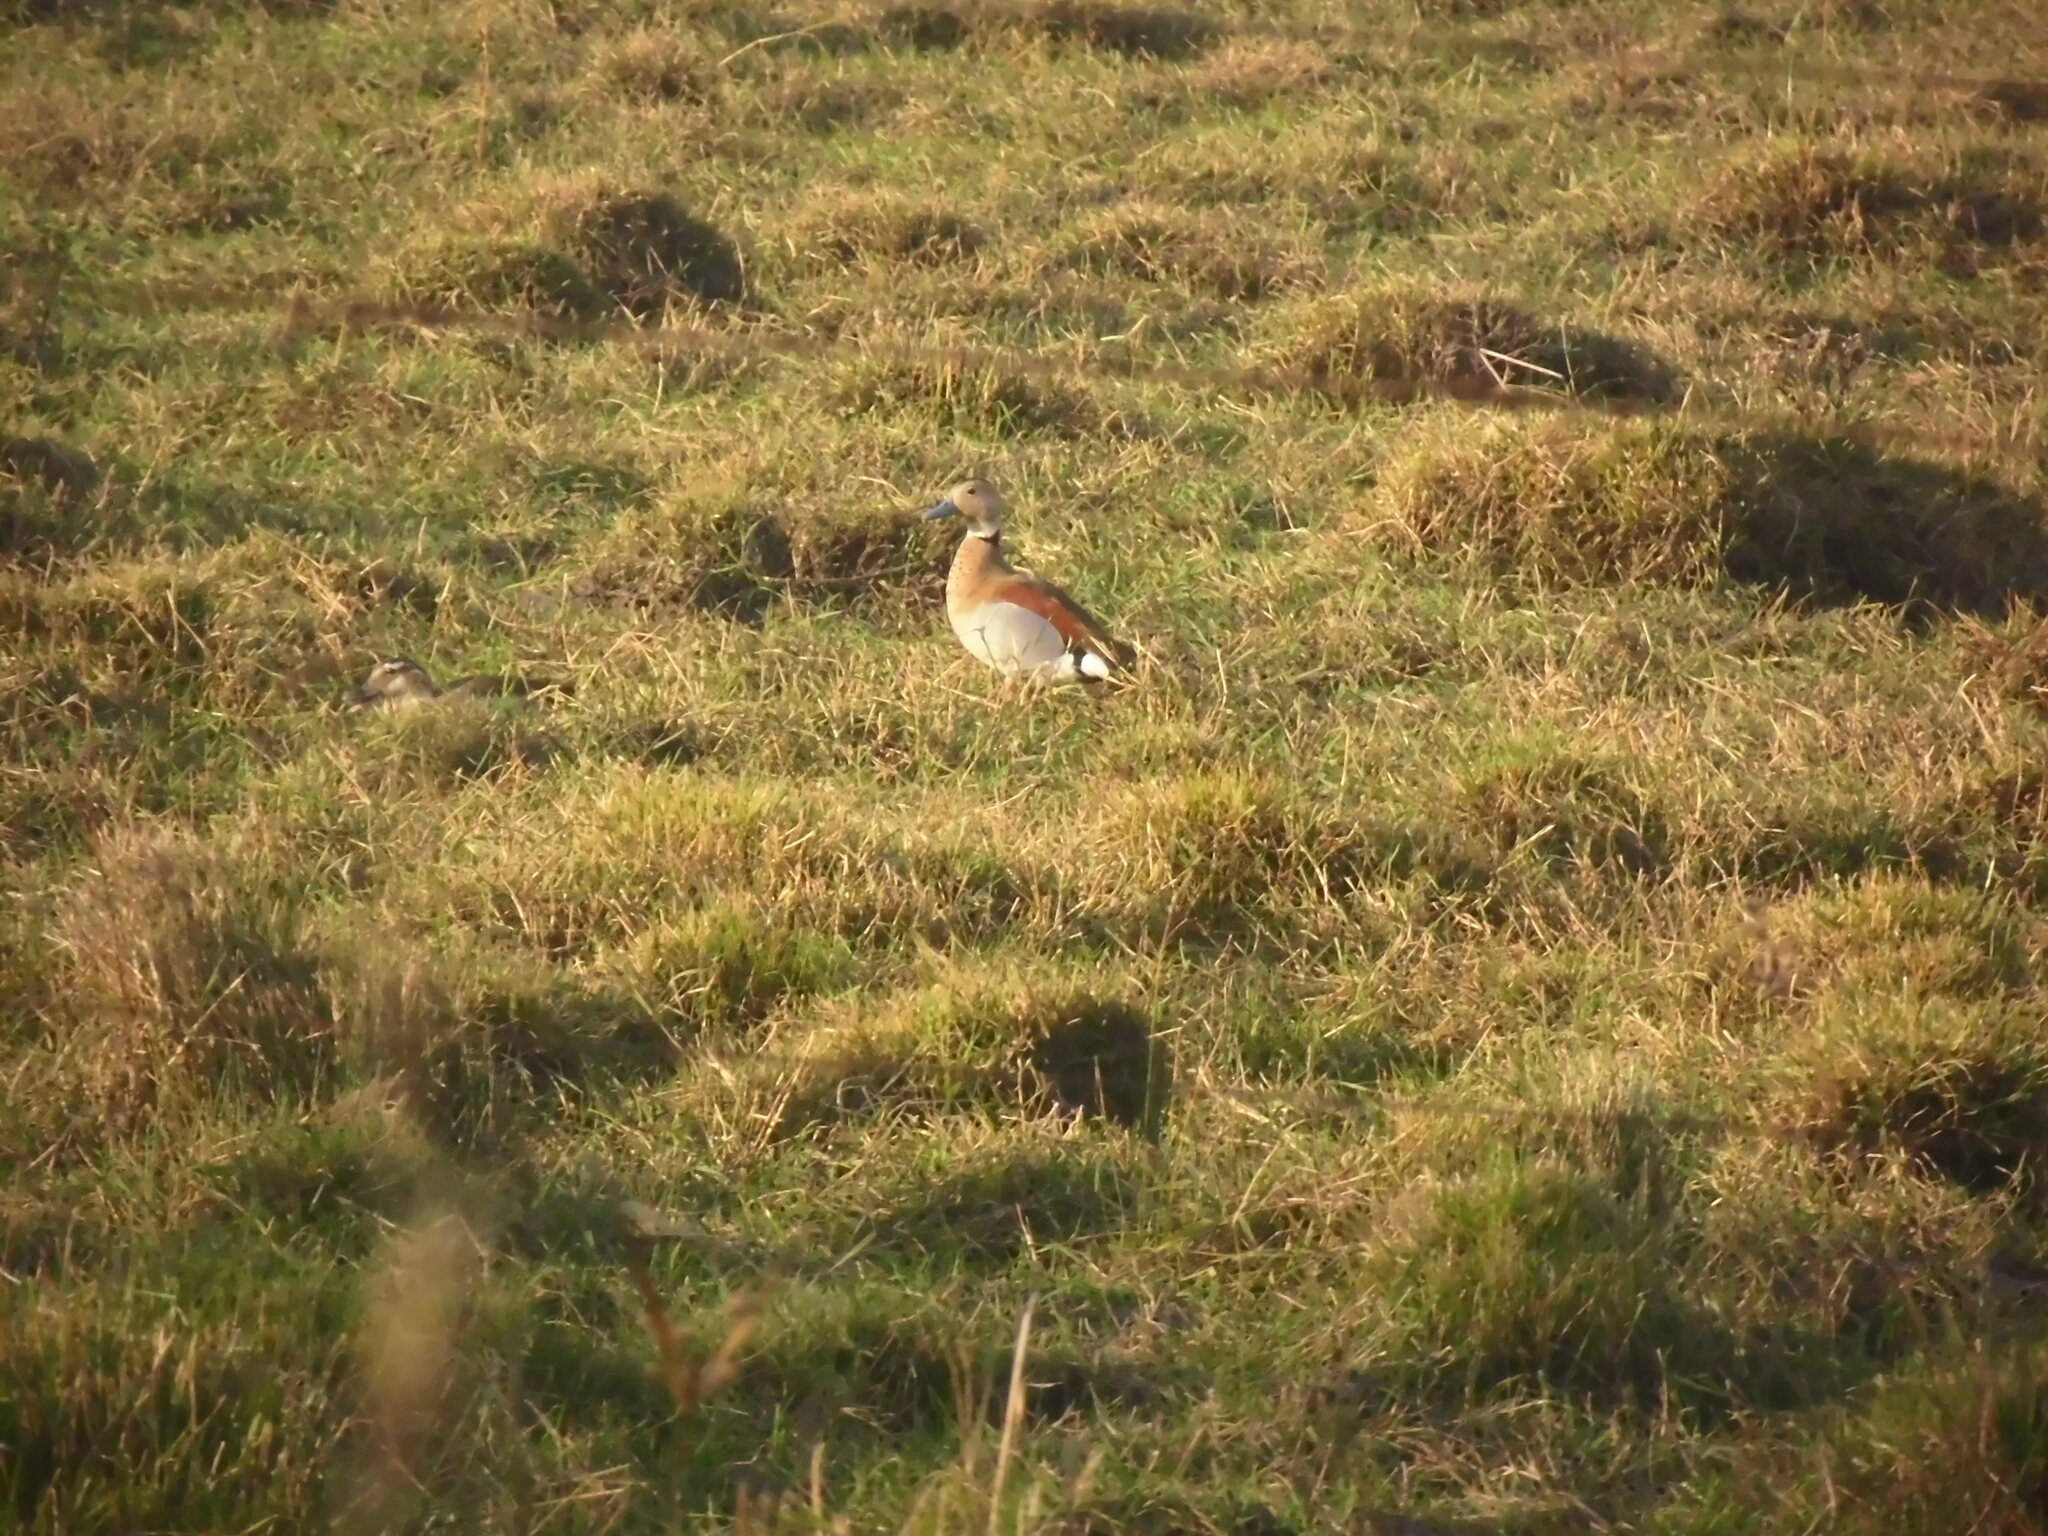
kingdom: Animalia
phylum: Chordata
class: Aves
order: Anseriformes
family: Anatidae
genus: Callonetta
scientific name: Callonetta leucophrys
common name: Ringed teal
